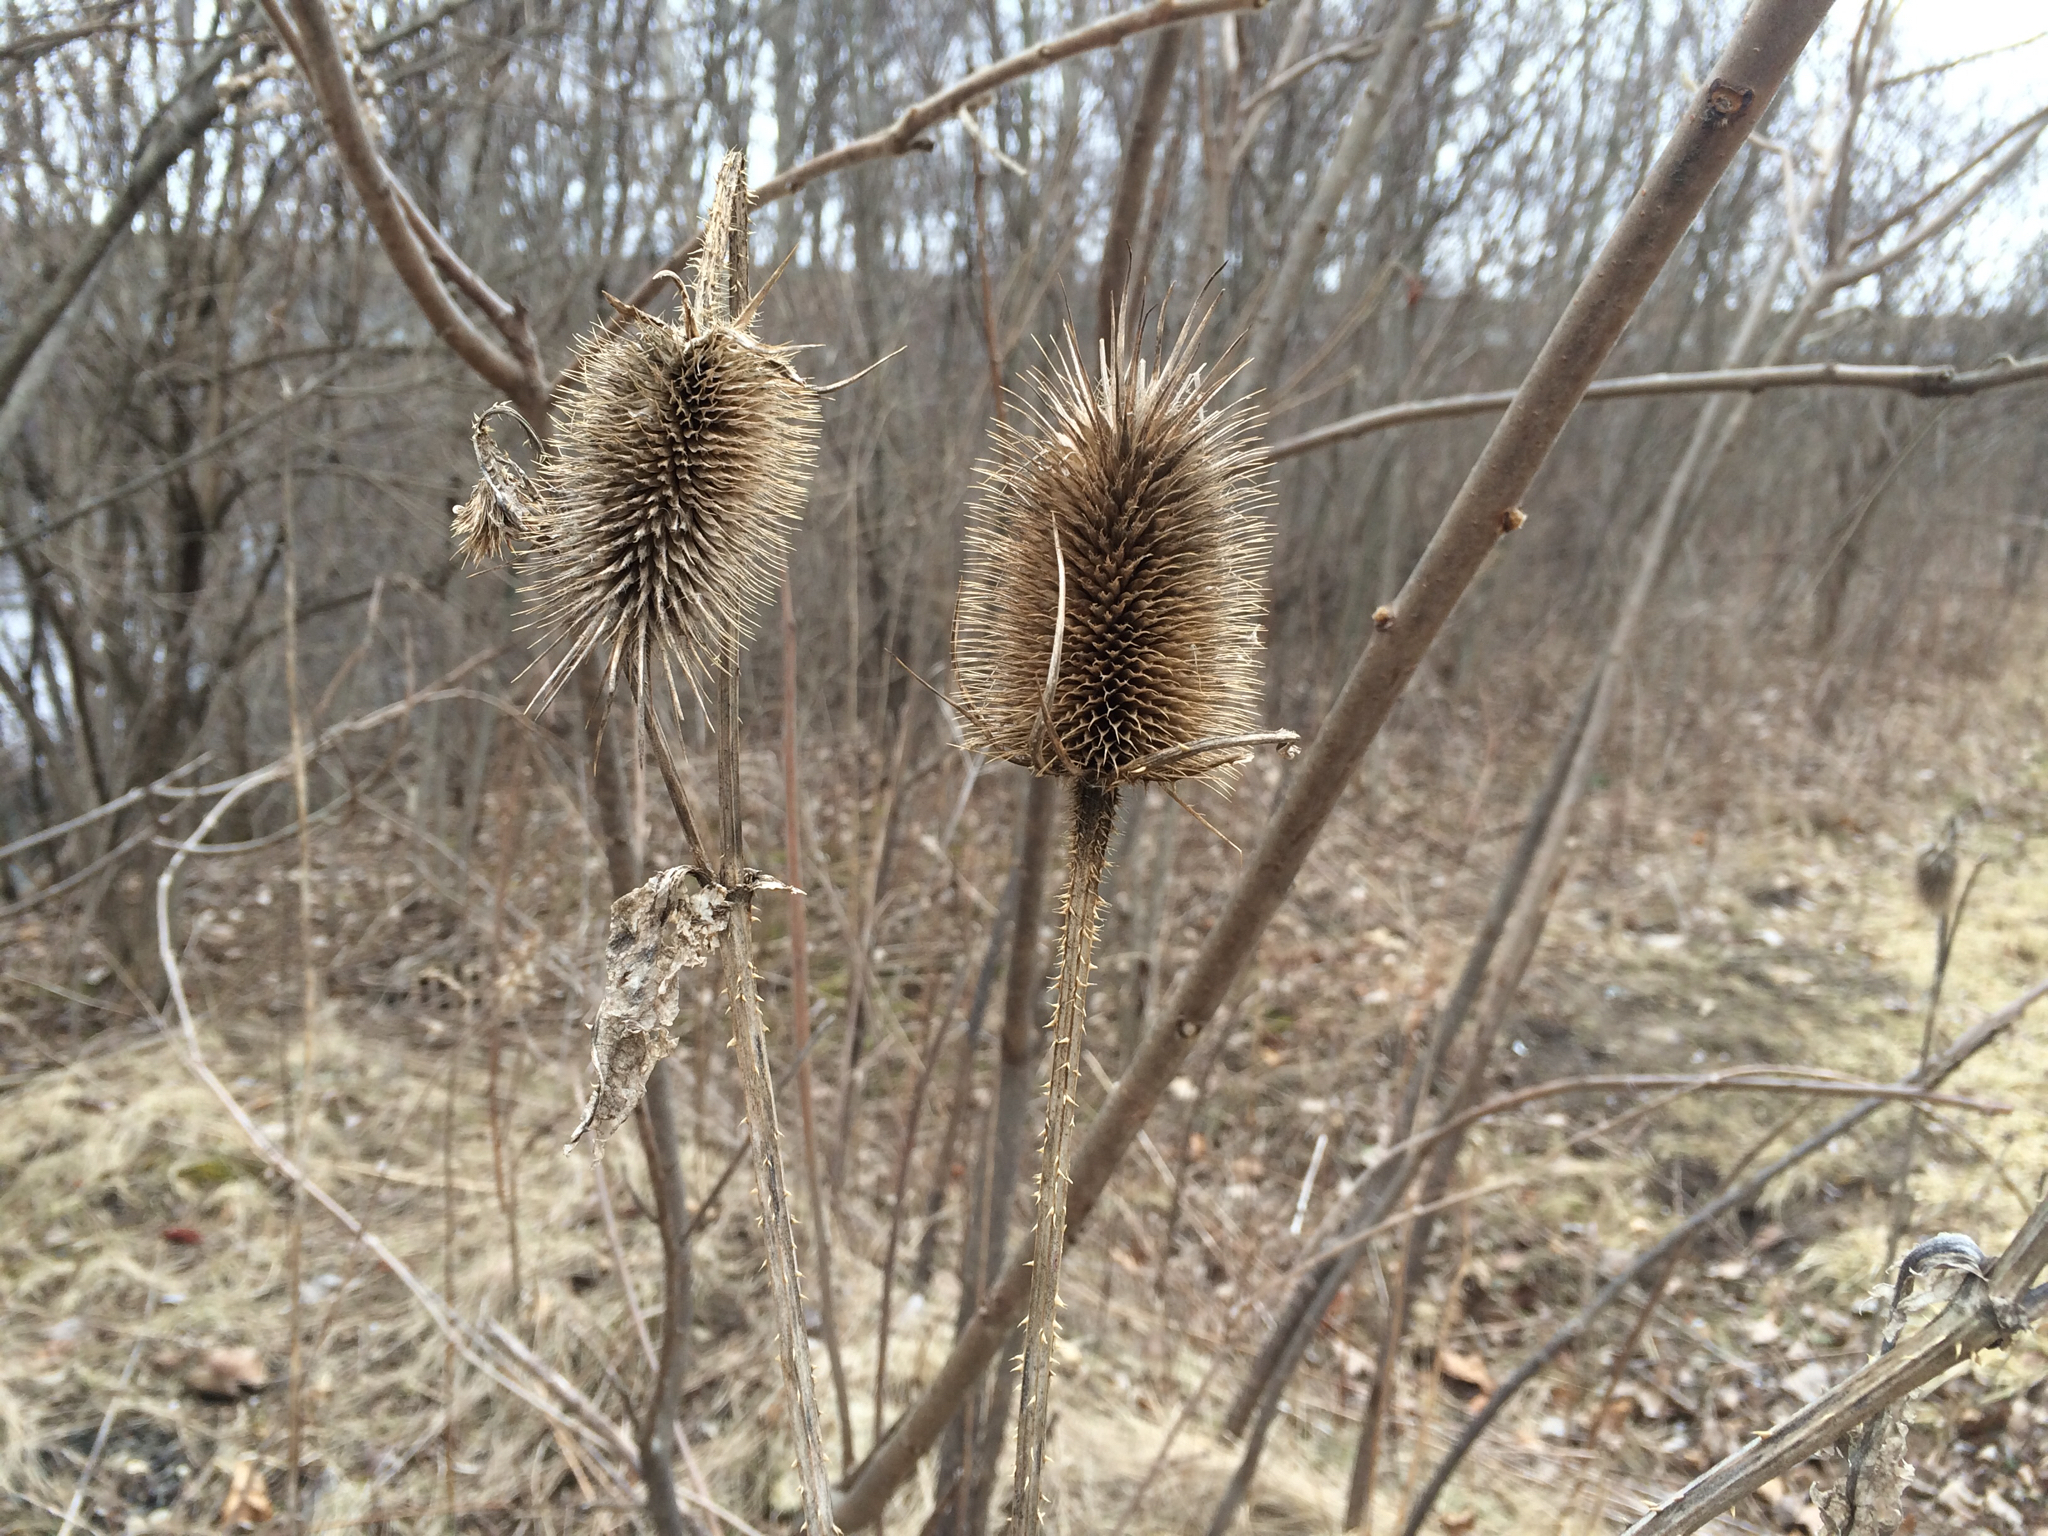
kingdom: Plantae
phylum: Tracheophyta
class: Magnoliopsida
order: Dipsacales
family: Caprifoliaceae
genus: Dipsacus
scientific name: Dipsacus fullonum
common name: Teasel
